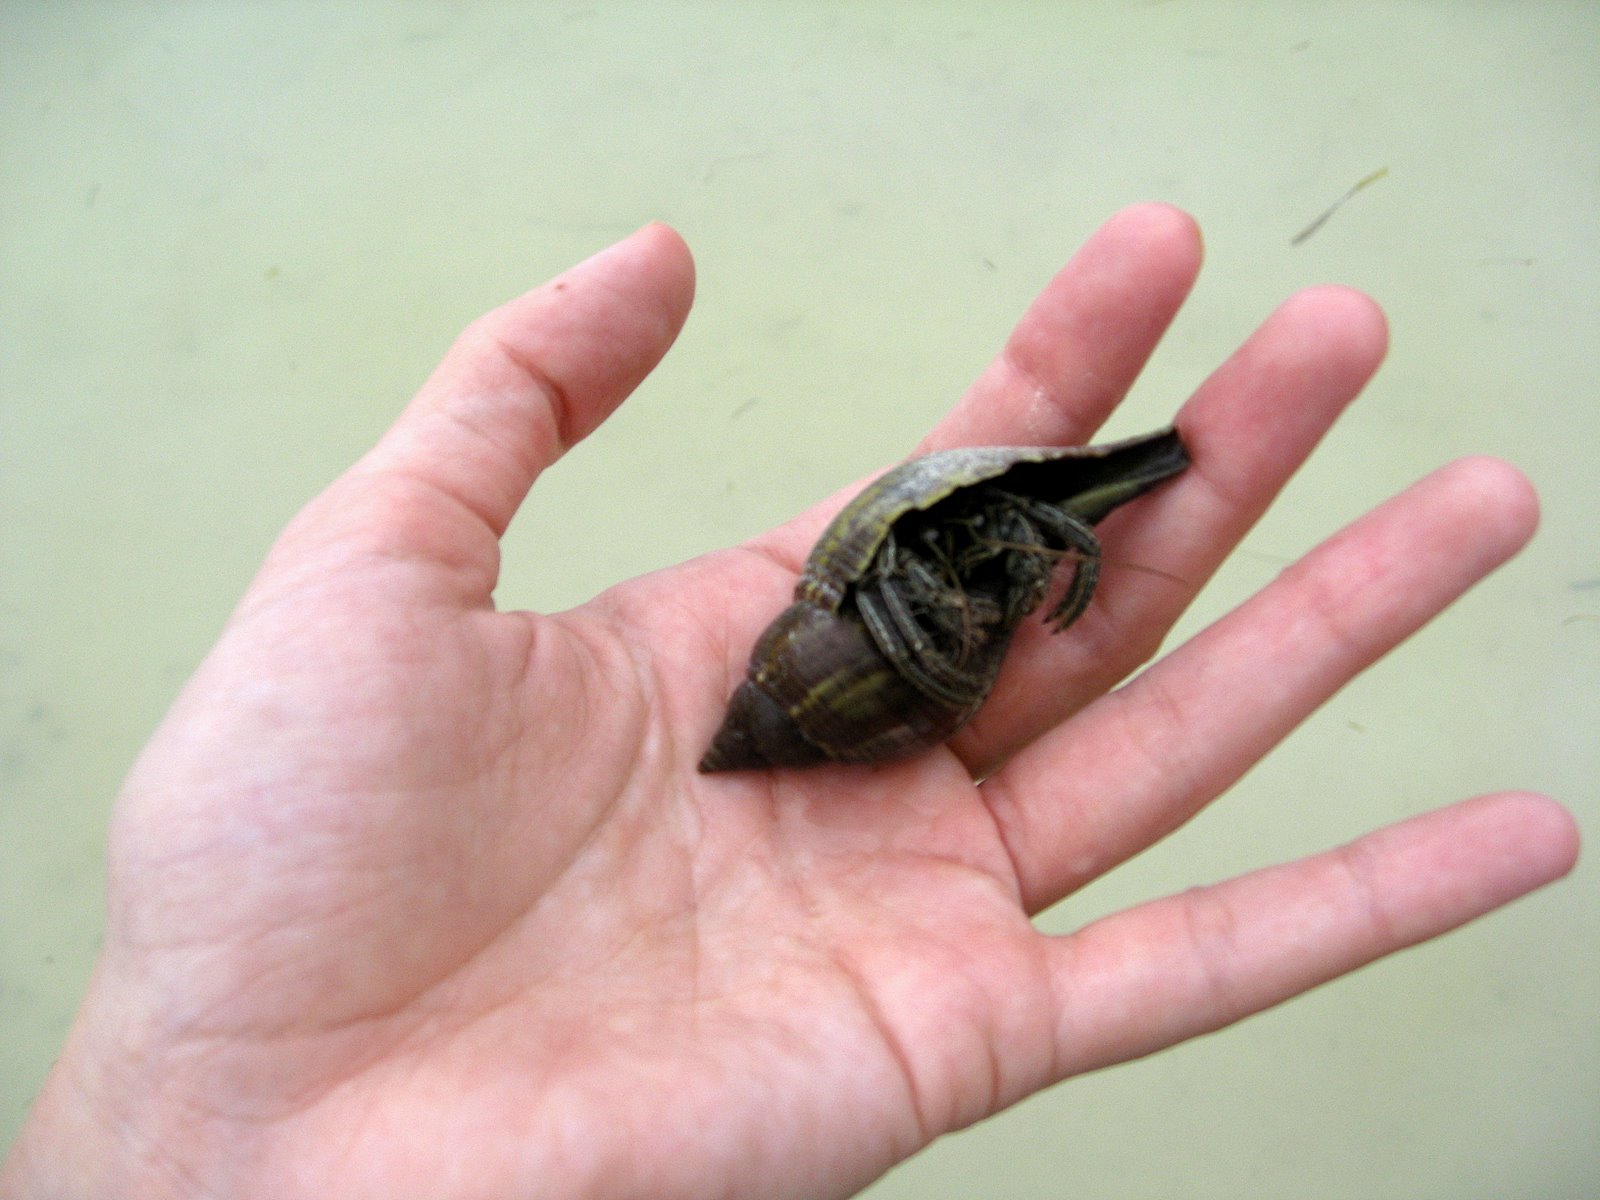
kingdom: Animalia
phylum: Arthropoda
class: Malacostraca
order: Decapoda
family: Diogenidae
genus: Clibanarius
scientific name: Clibanarius vittatus
